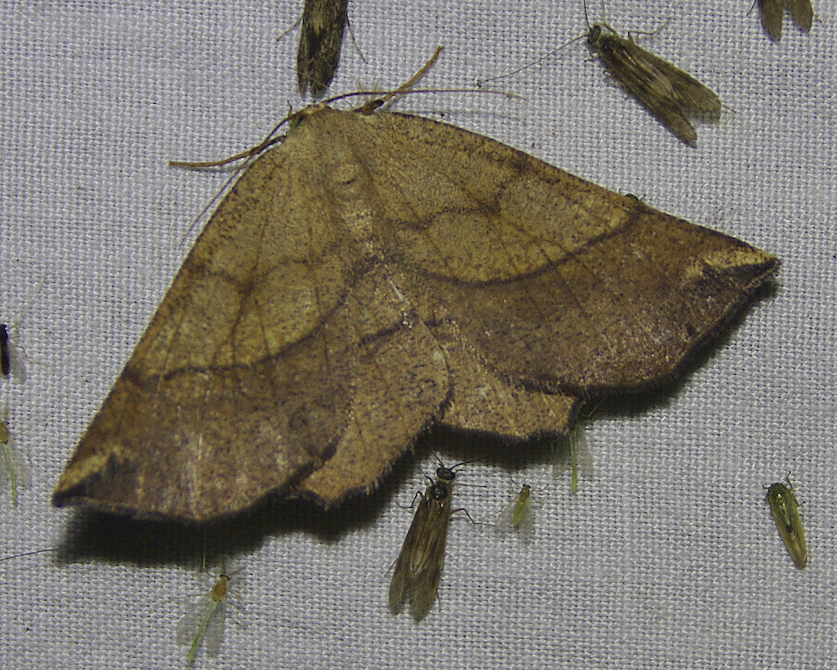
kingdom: Animalia
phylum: Arthropoda
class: Insecta
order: Lepidoptera
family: Geometridae
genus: Euchlaena
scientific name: Euchlaena madusaria
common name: Scrub euchlaena moth
